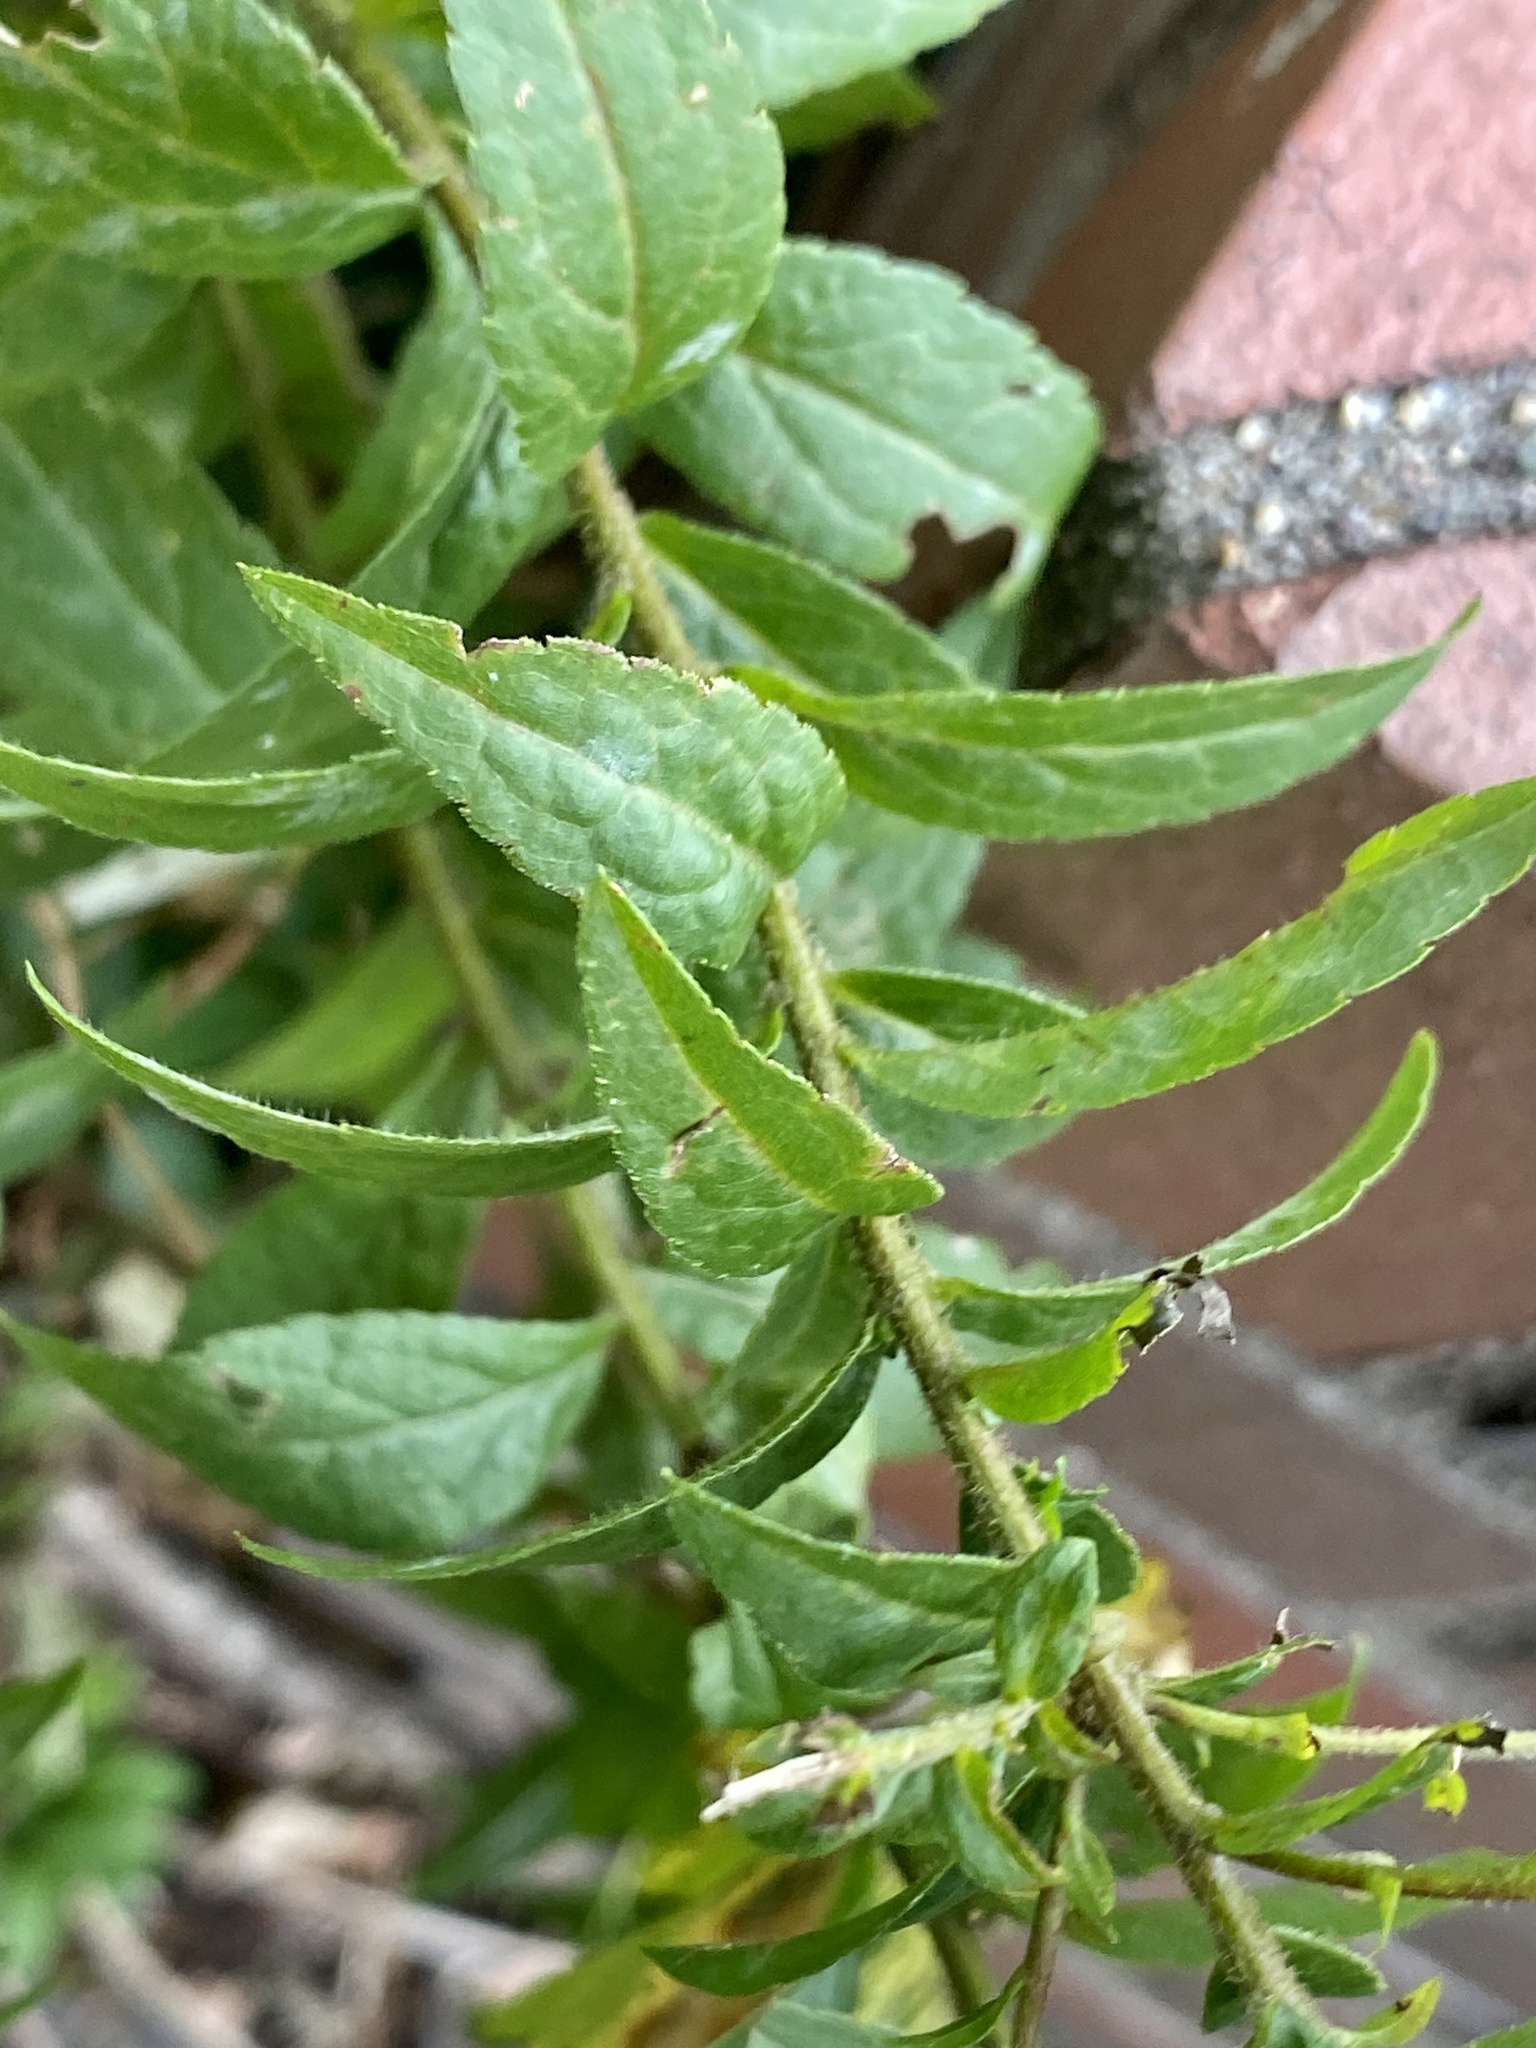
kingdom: Plantae
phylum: Tracheophyta
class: Magnoliopsida
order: Asterales
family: Asteraceae
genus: Solidago
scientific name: Solidago rugosa
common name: Rough-stemmed goldenrod
